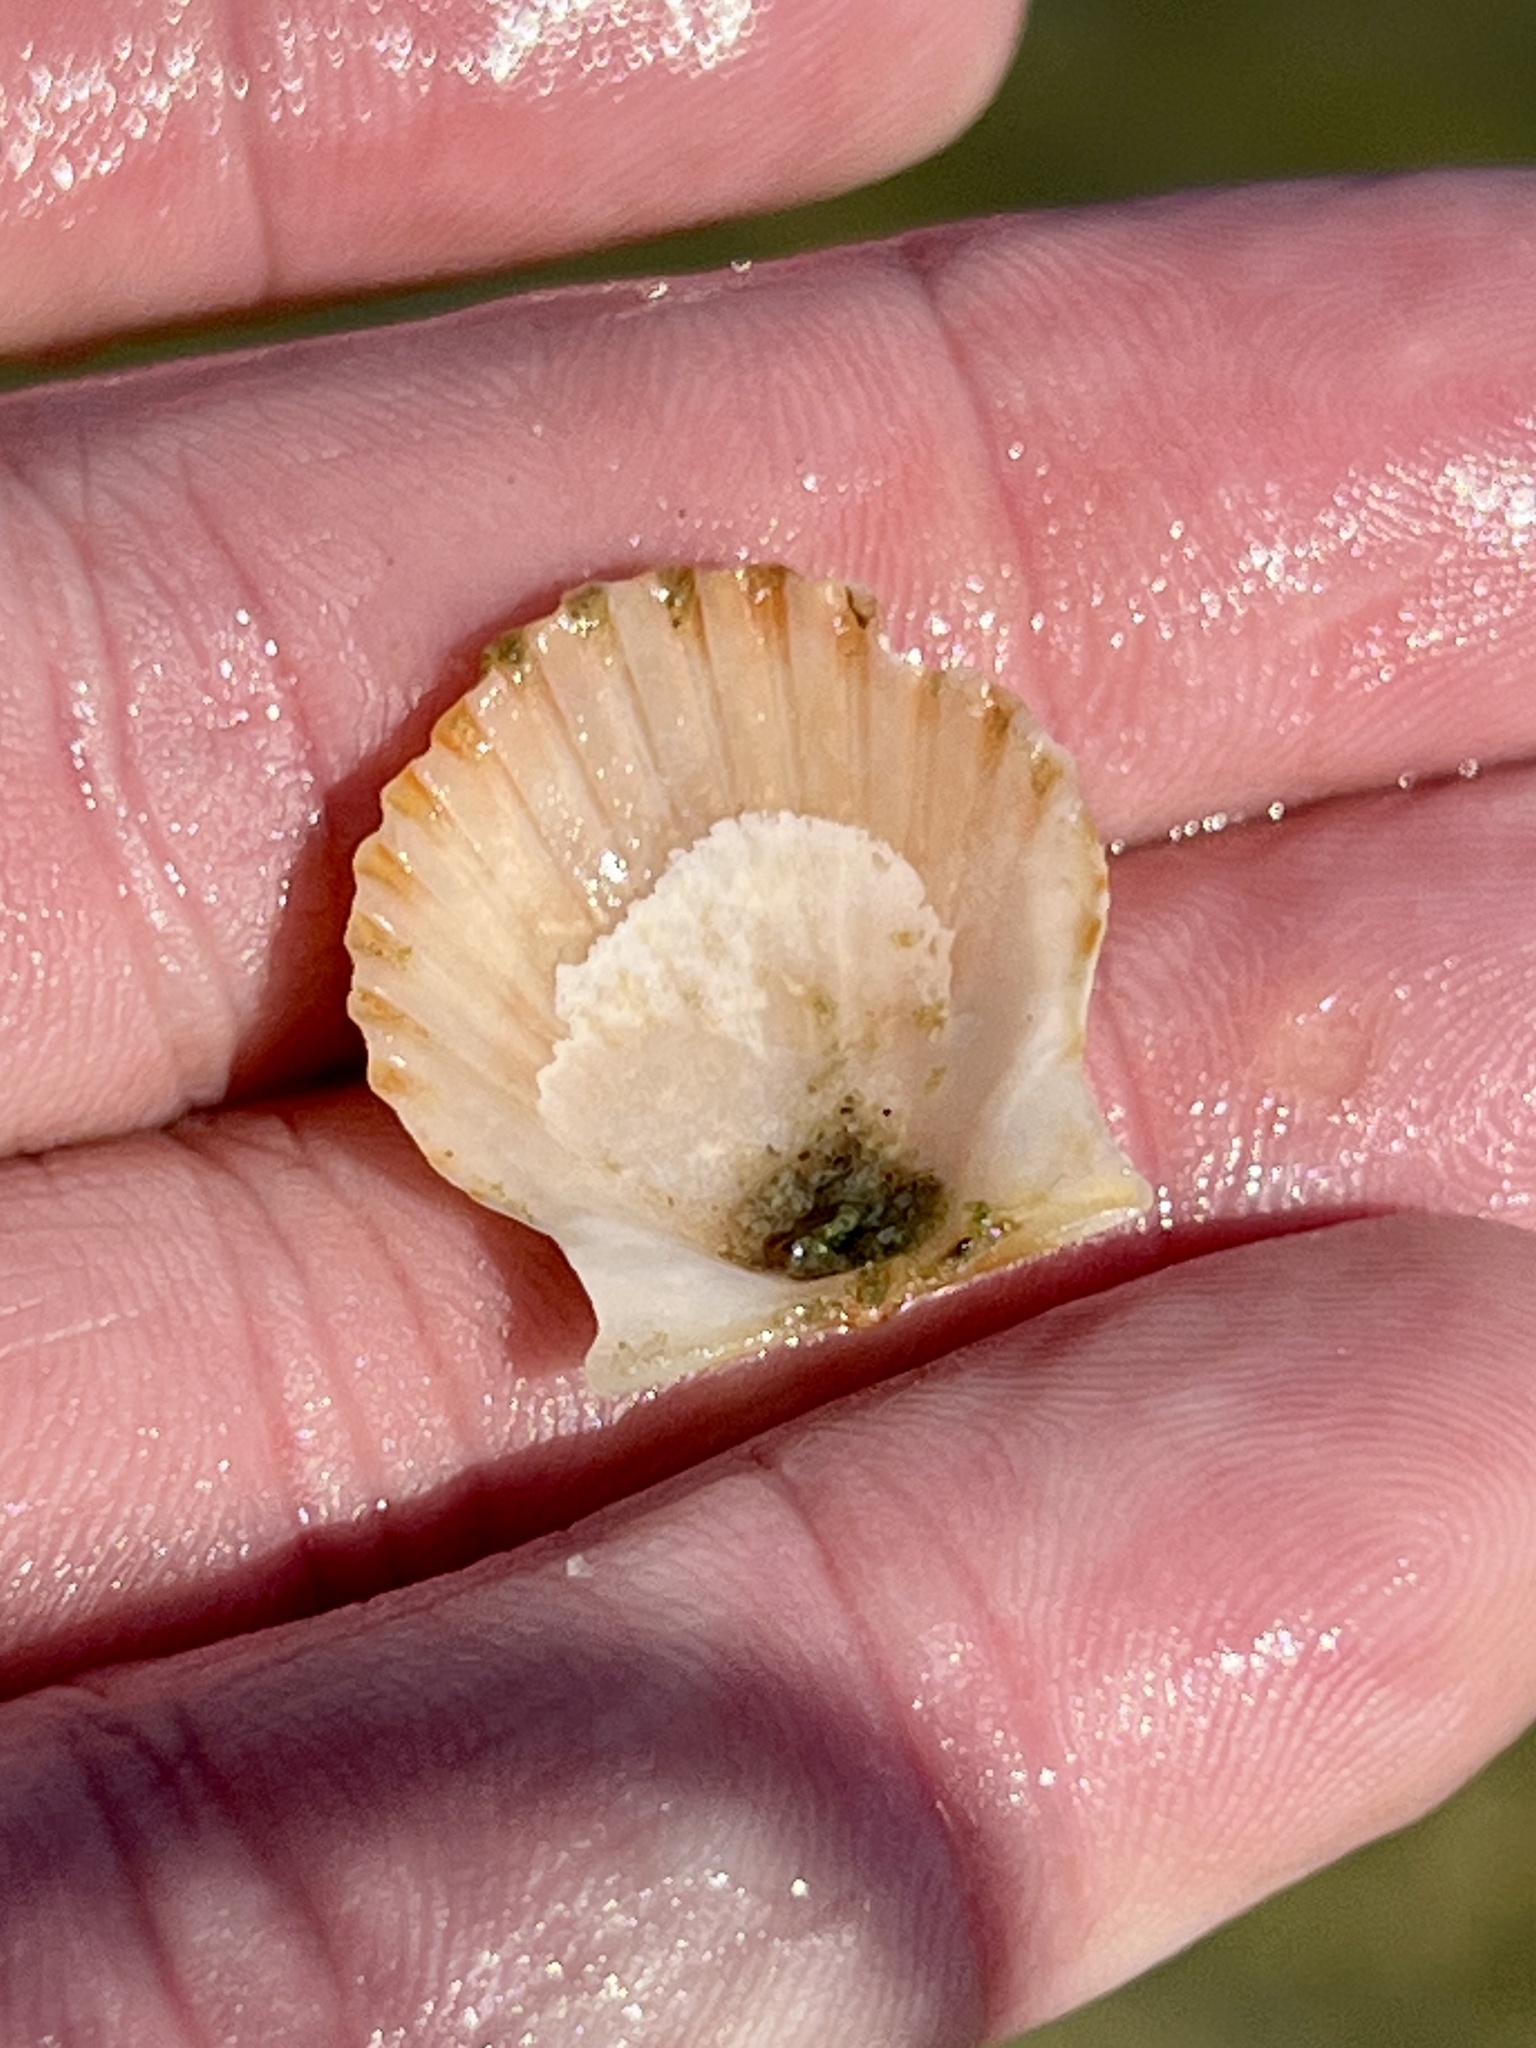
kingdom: Animalia
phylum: Mollusca
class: Bivalvia
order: Pectinida
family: Pectinidae
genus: Argopecten
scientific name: Argopecten irradians
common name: Atlantic bay scallop
